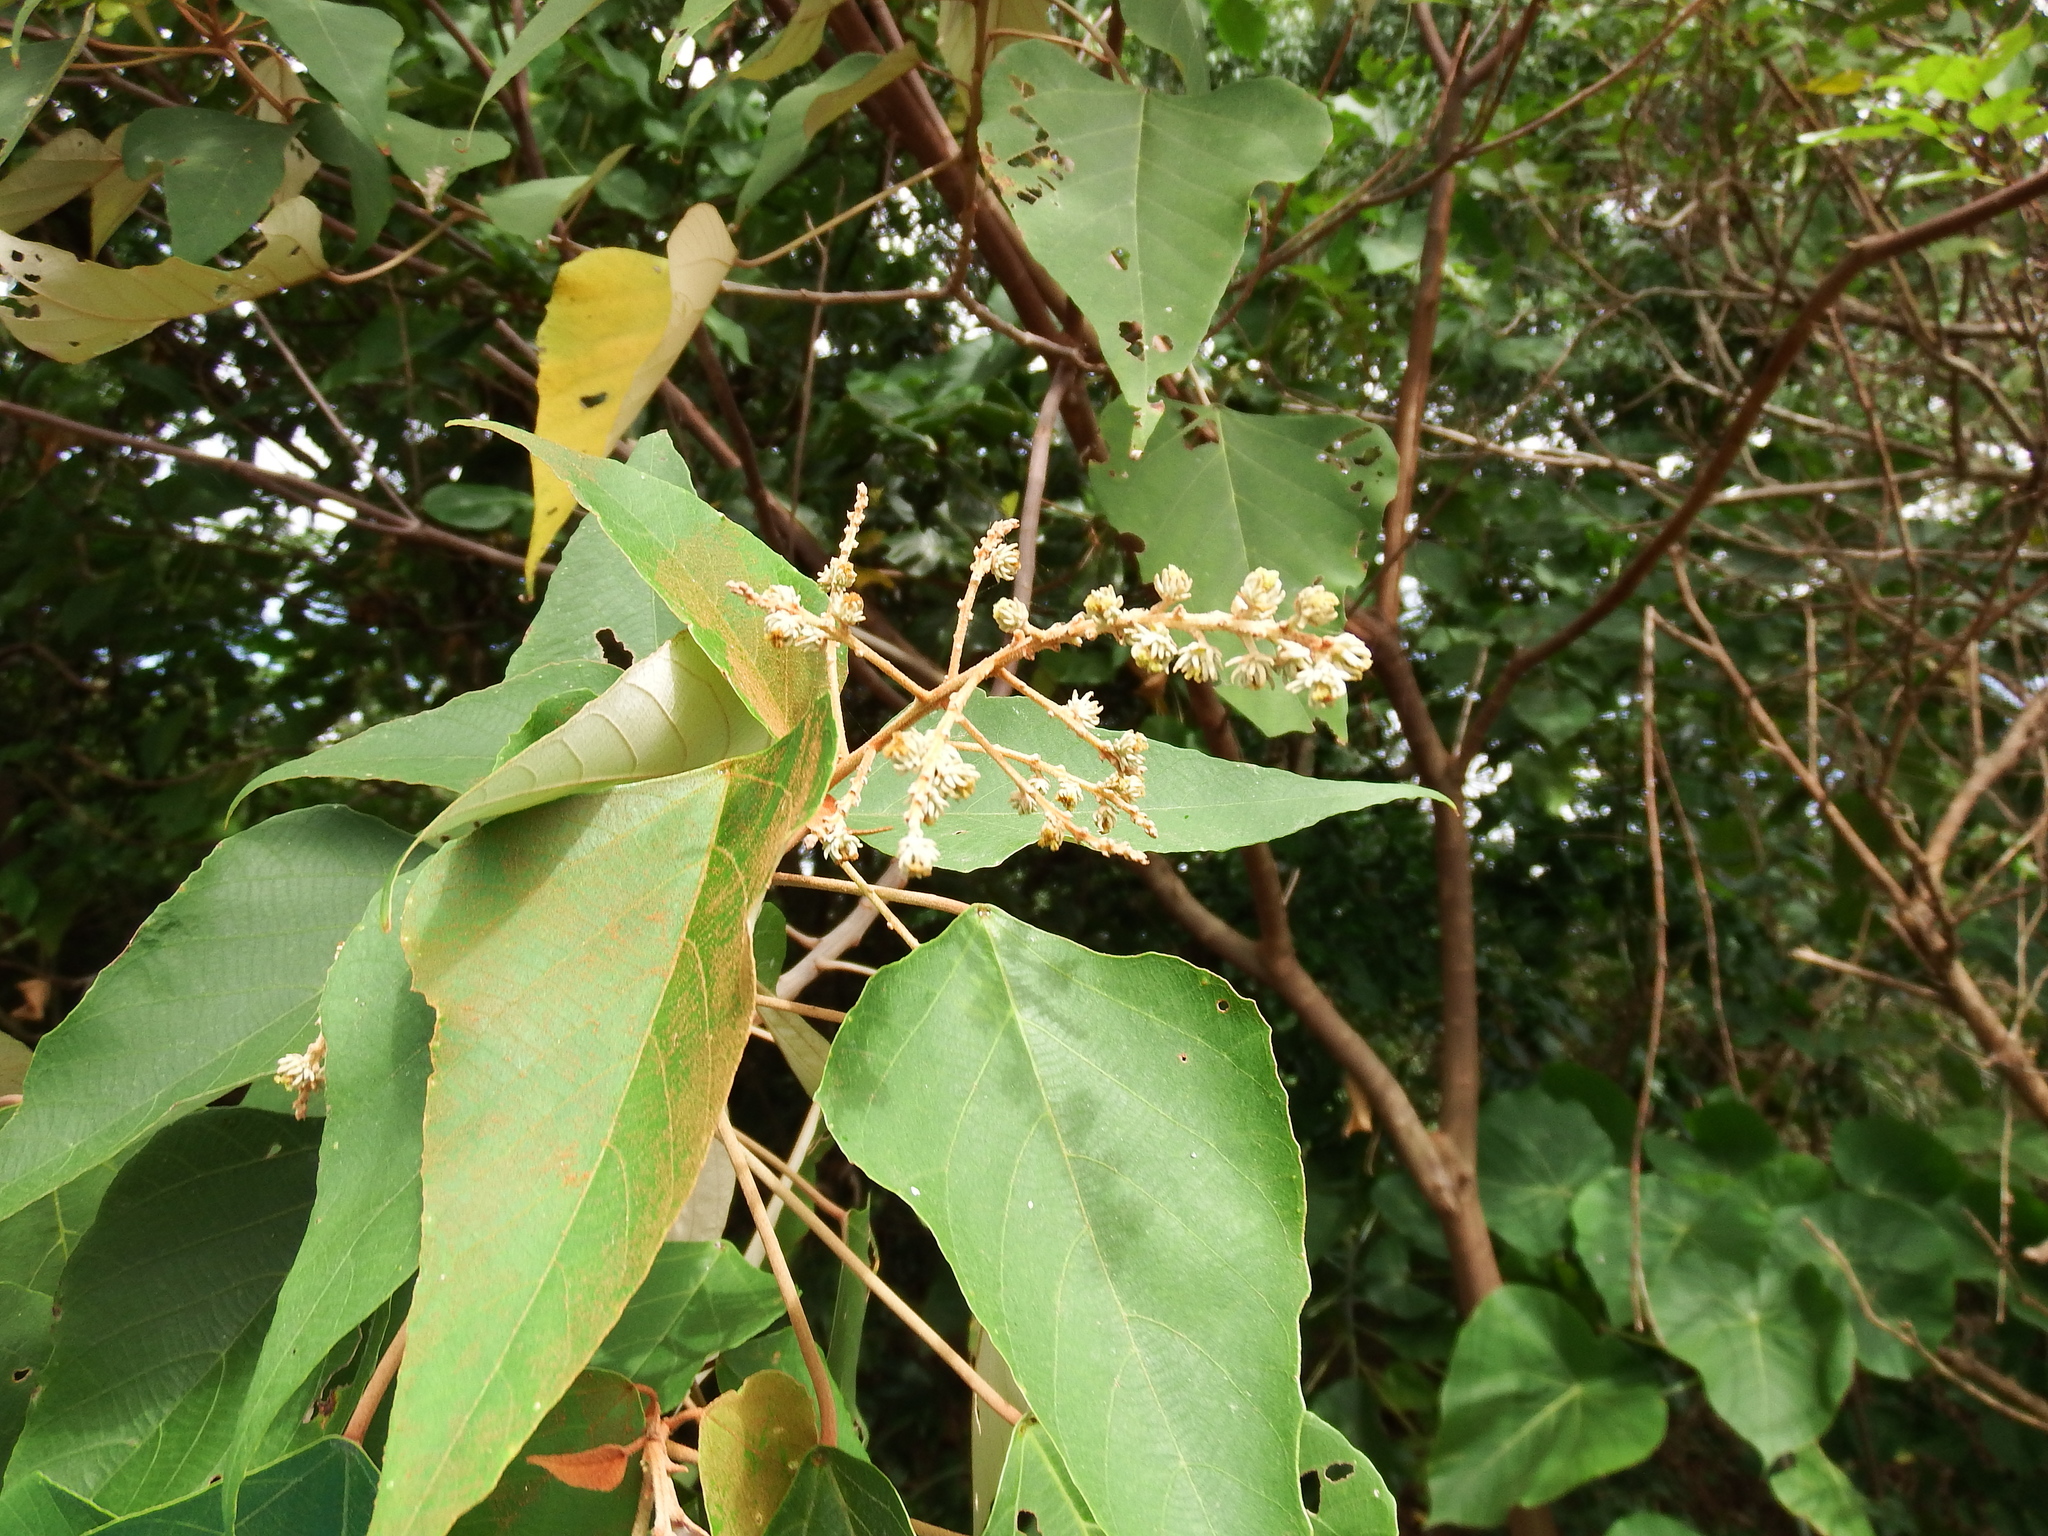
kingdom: Plantae
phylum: Tracheophyta
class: Magnoliopsida
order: Malpighiales
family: Euphorbiaceae
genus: Mallotus
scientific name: Mallotus paniculatus
